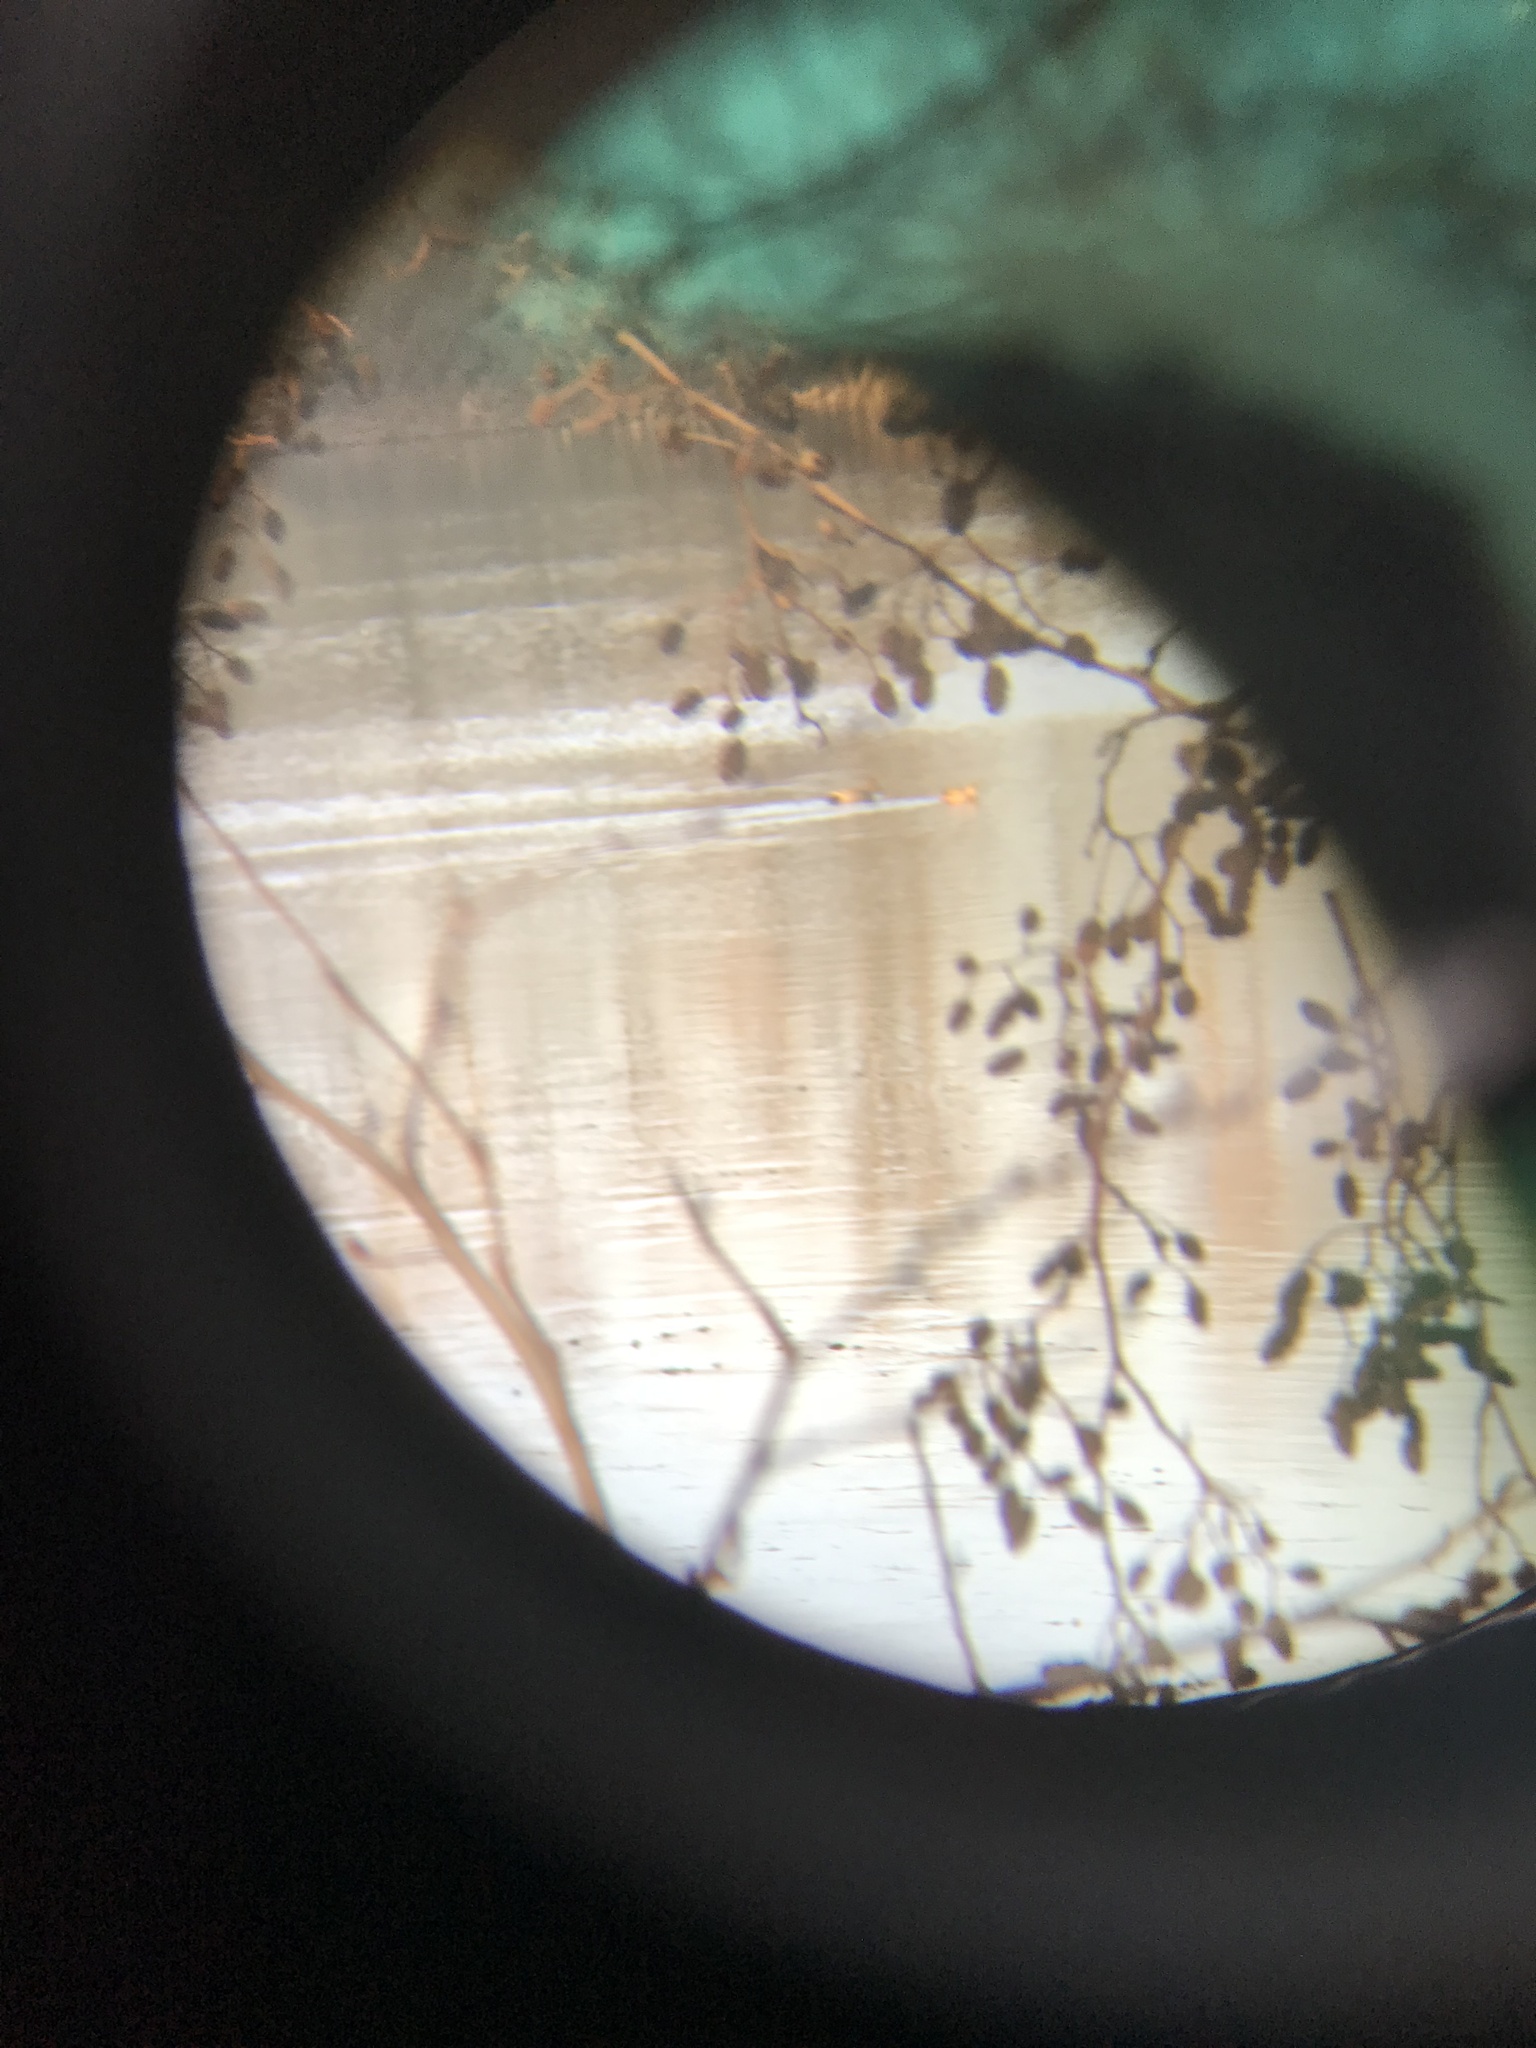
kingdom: Animalia
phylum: Chordata
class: Aves
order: Anseriformes
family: Anatidae
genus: Mareca
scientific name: Mareca strepera
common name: Gadwall
